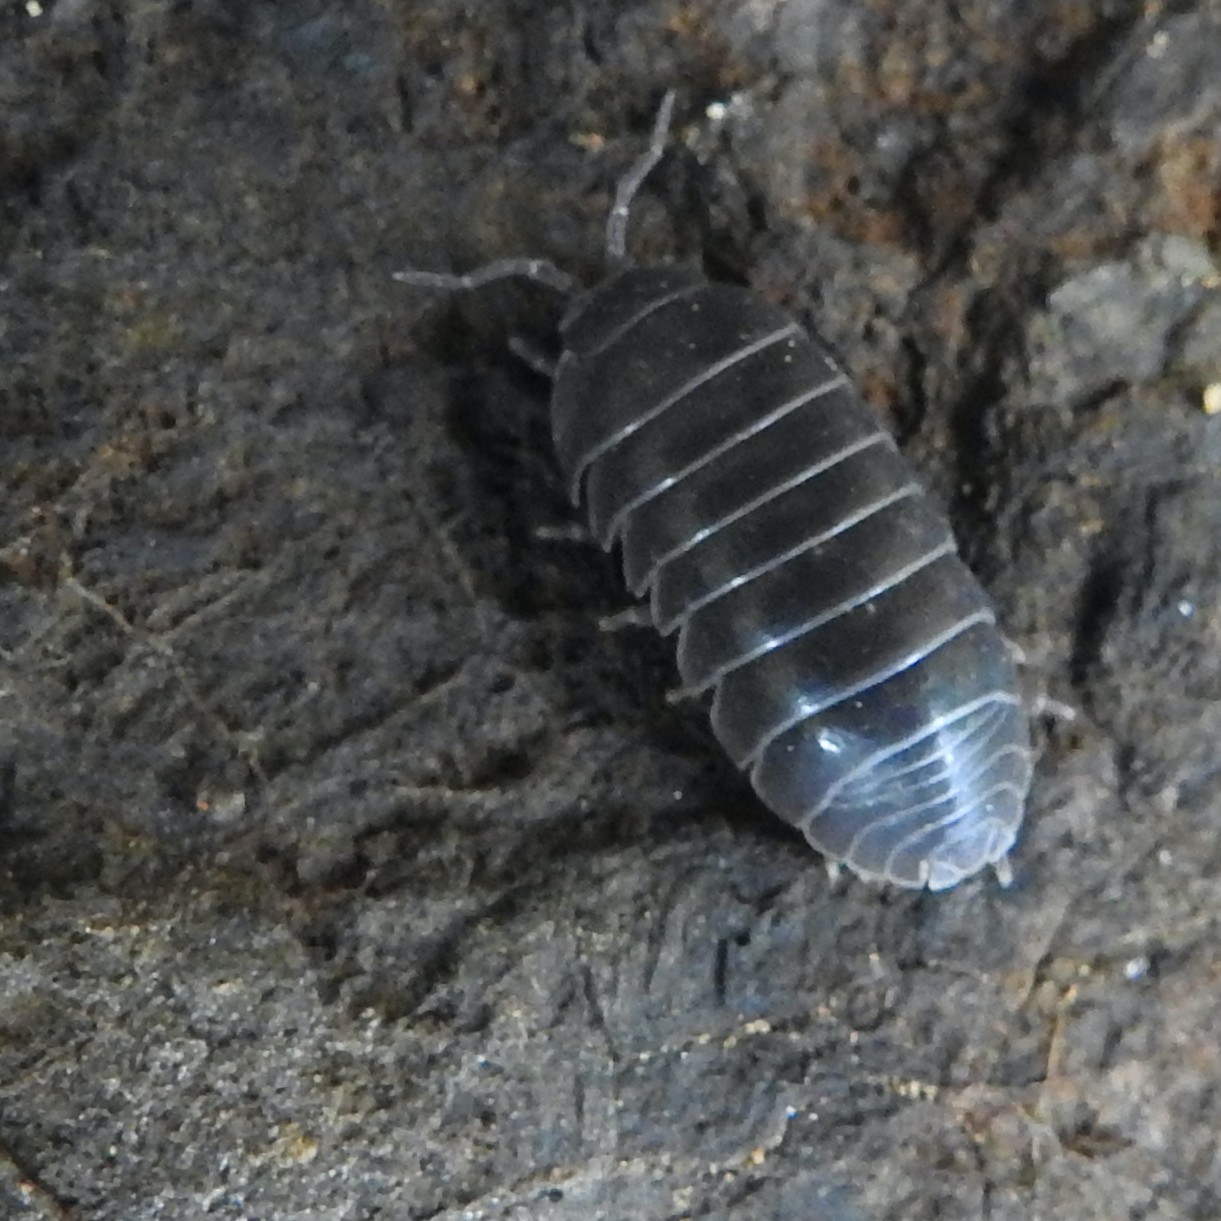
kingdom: Animalia
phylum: Arthropoda
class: Malacostraca
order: Isopoda
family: Armadillidiidae
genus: Armadillidium
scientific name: Armadillidium vulgare
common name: Common pill woodlouse
